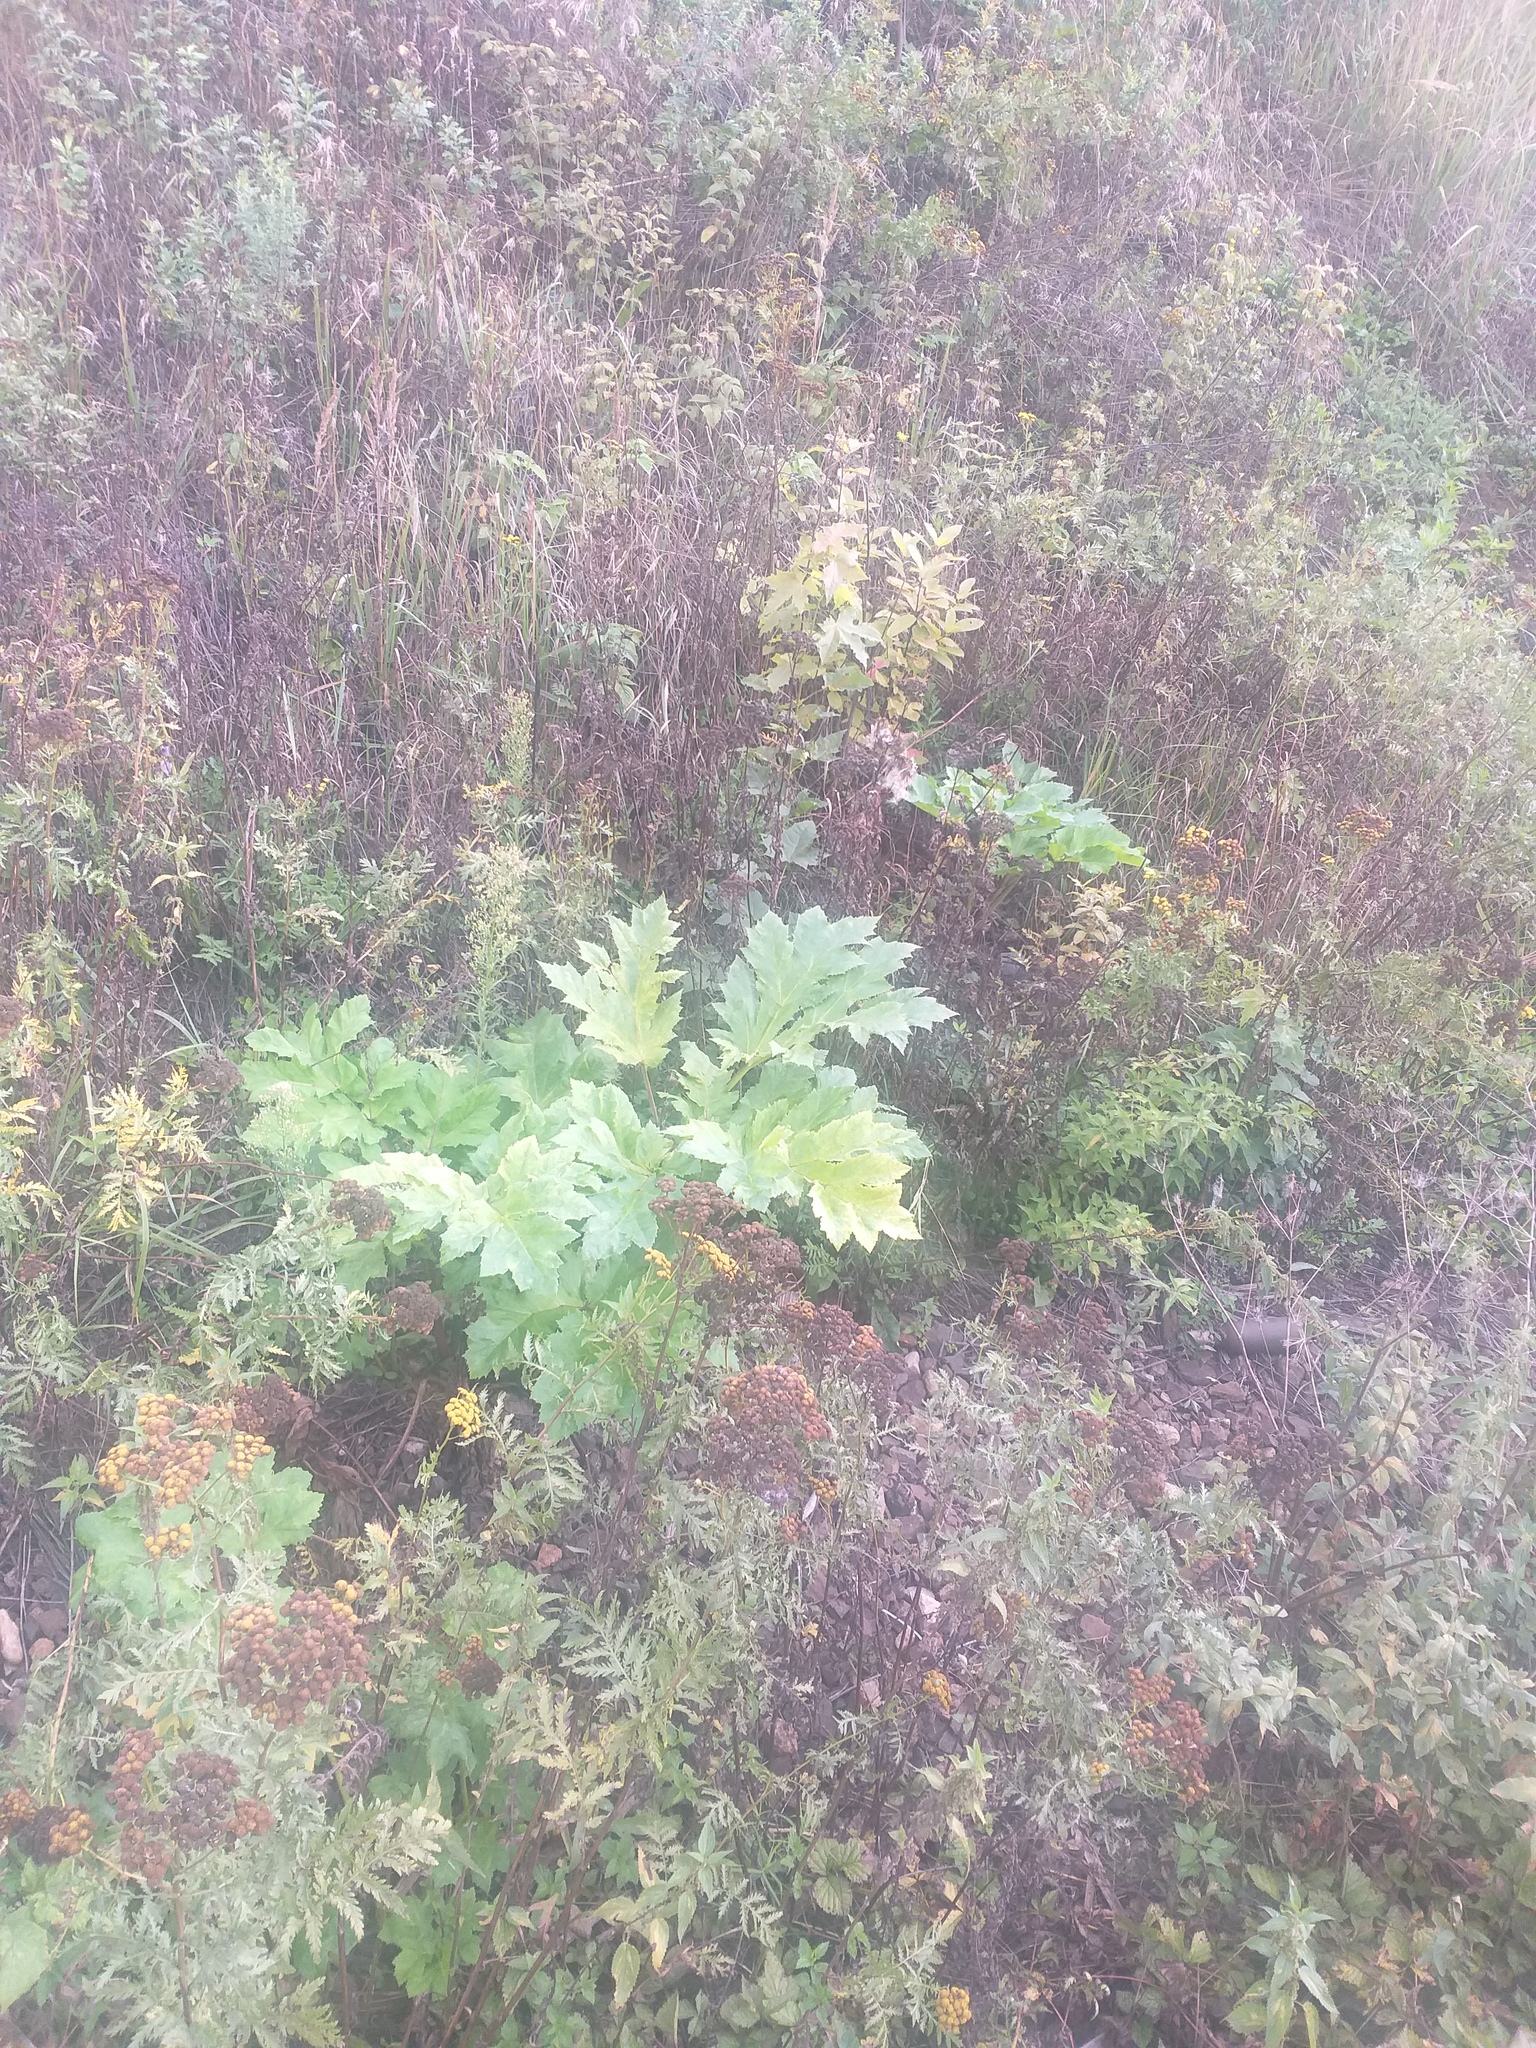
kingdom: Plantae
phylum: Tracheophyta
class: Magnoliopsida
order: Apiales
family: Apiaceae
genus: Heracleum
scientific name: Heracleum sosnowskyi
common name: Sosnowsky's hogweed
